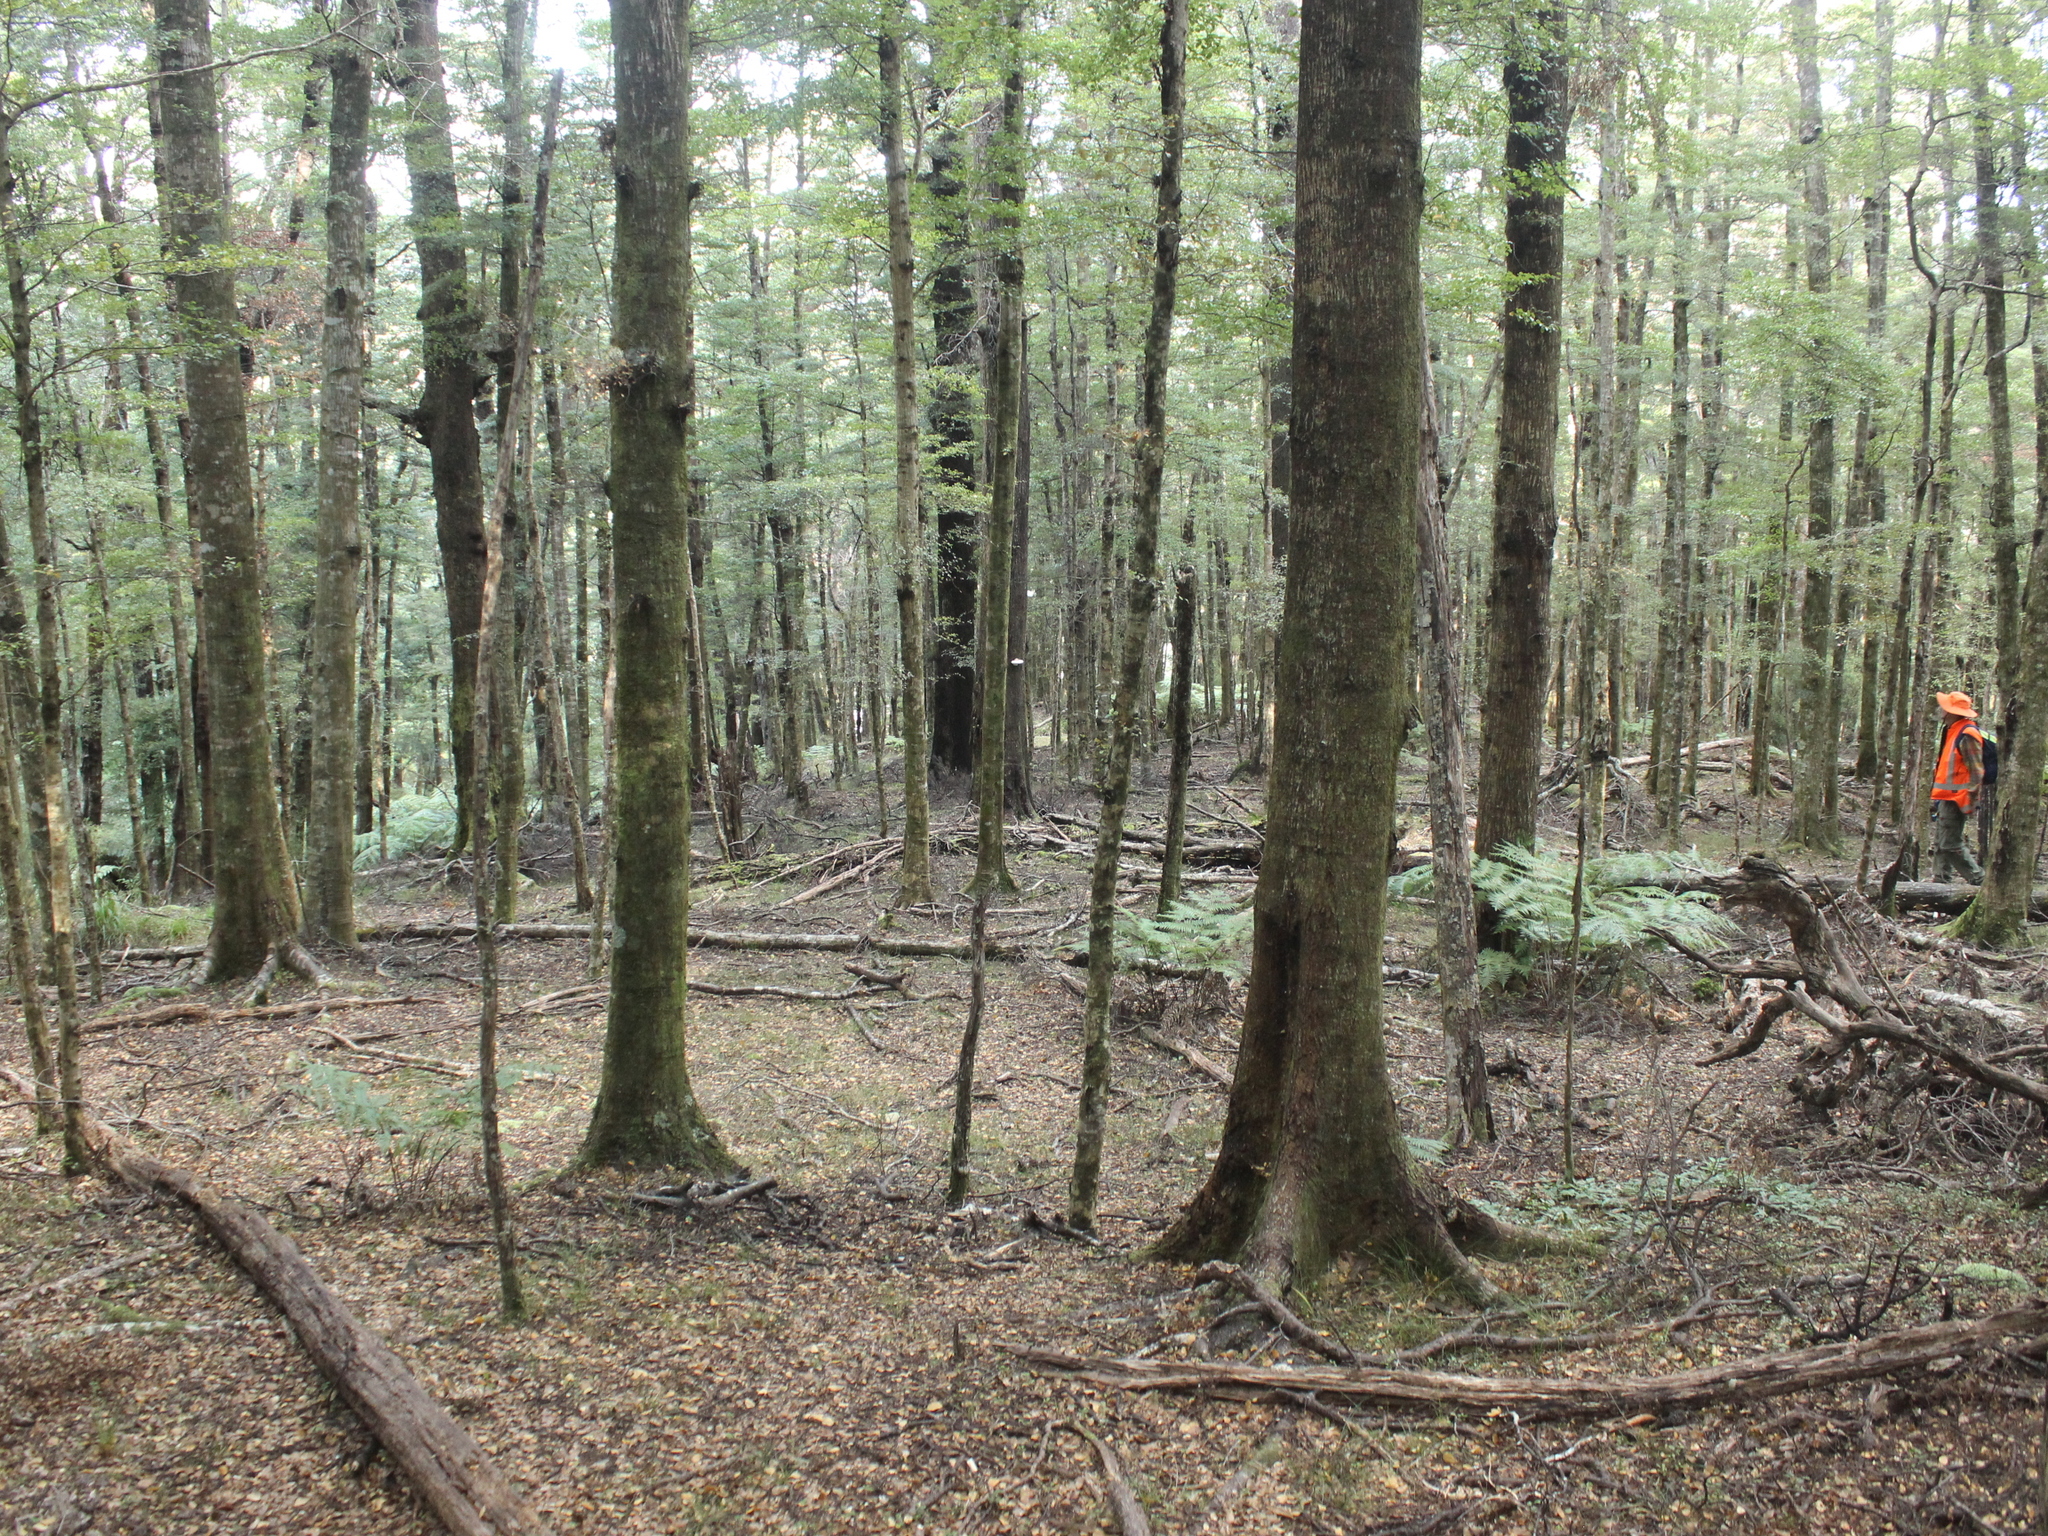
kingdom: Plantae
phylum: Tracheophyta
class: Magnoliopsida
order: Fagales
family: Nothofagaceae
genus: Nothofagus
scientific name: Nothofagus fusca
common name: Red beech
